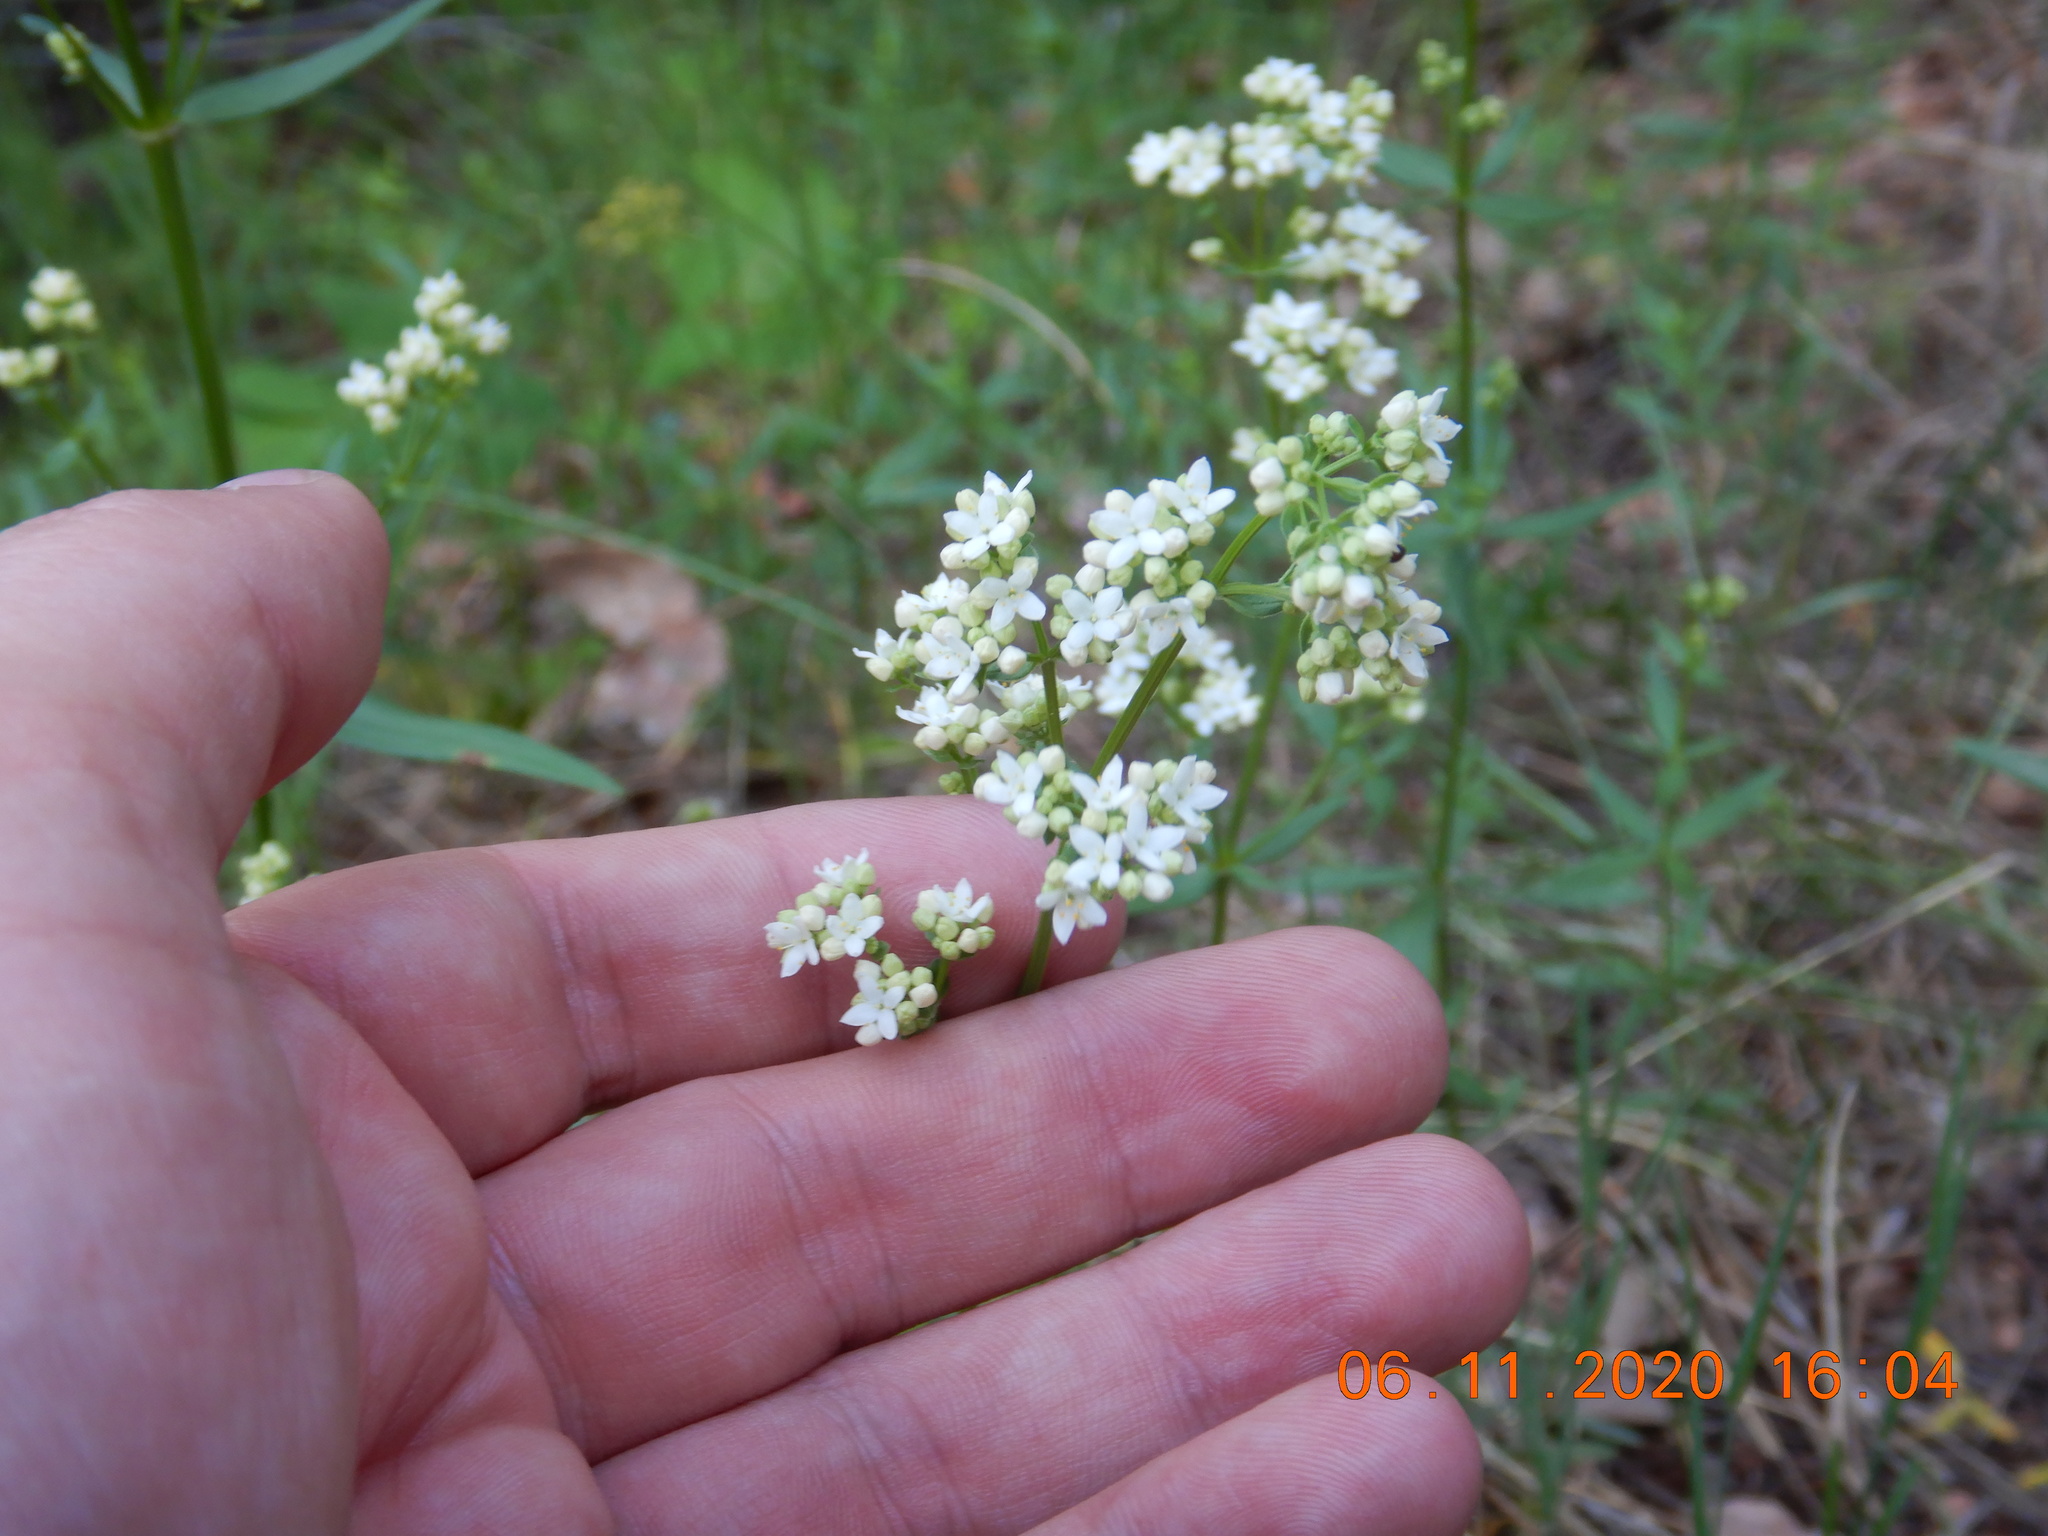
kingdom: Plantae
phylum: Tracheophyta
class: Magnoliopsida
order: Gentianales
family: Rubiaceae
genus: Galium
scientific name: Galium boreale
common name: Northern bedstraw
